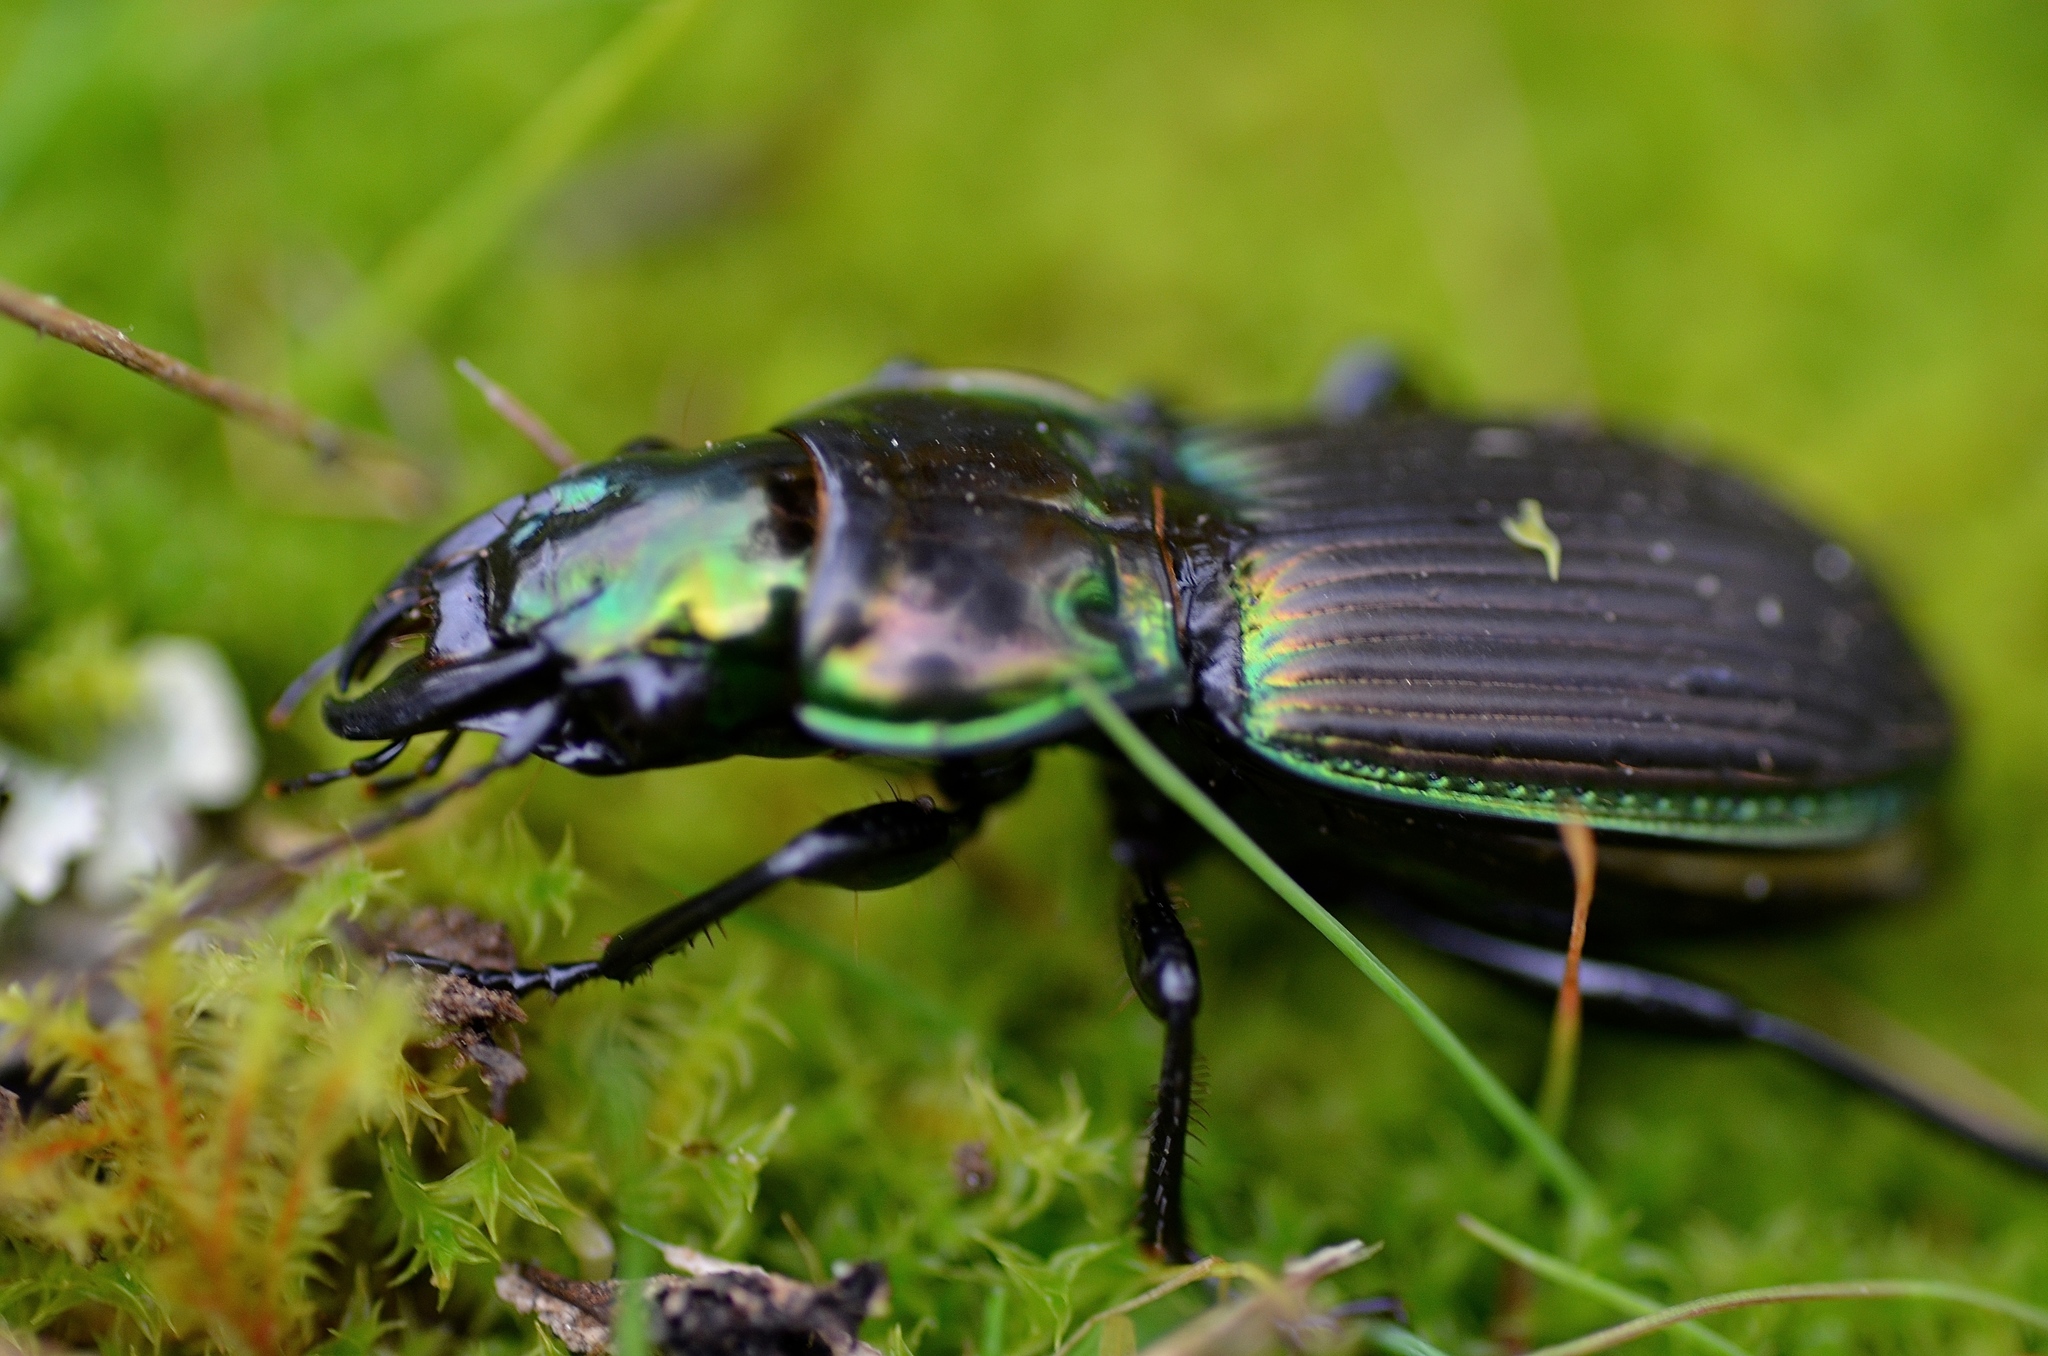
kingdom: Animalia
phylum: Arthropoda
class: Insecta
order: Coleoptera
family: Carabidae
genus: Megadromus
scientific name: Megadromus antarcticus
